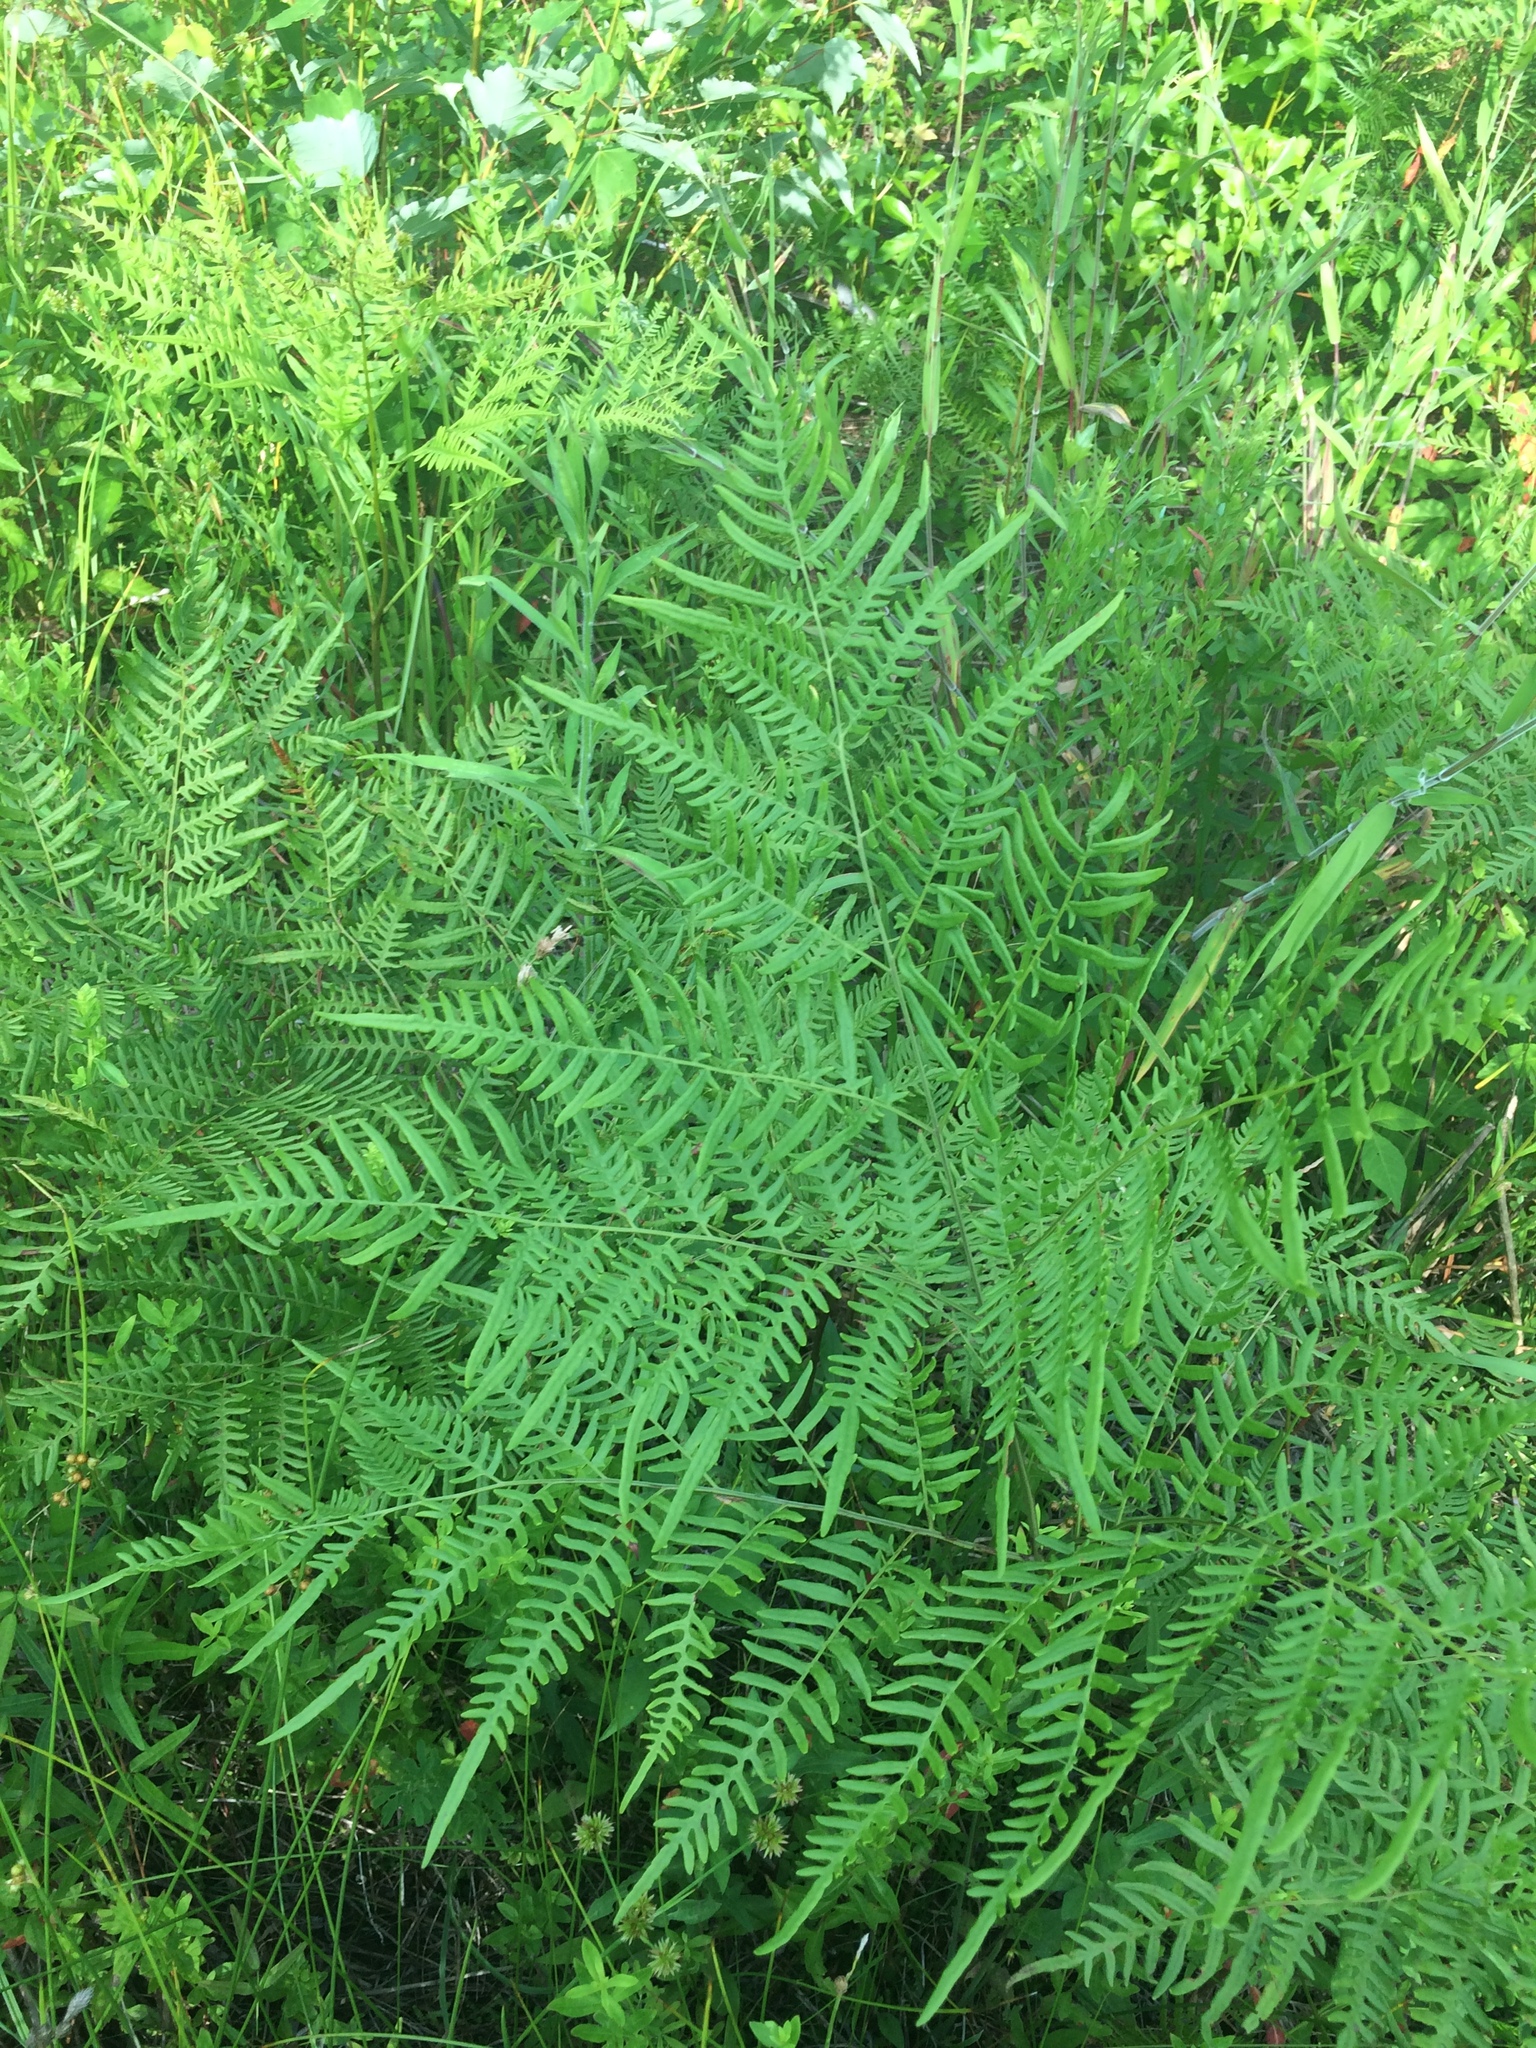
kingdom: Plantae
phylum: Tracheophyta
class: Polypodiopsida
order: Polypodiales
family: Dennstaedtiaceae
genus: Pteridium
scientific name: Pteridium
